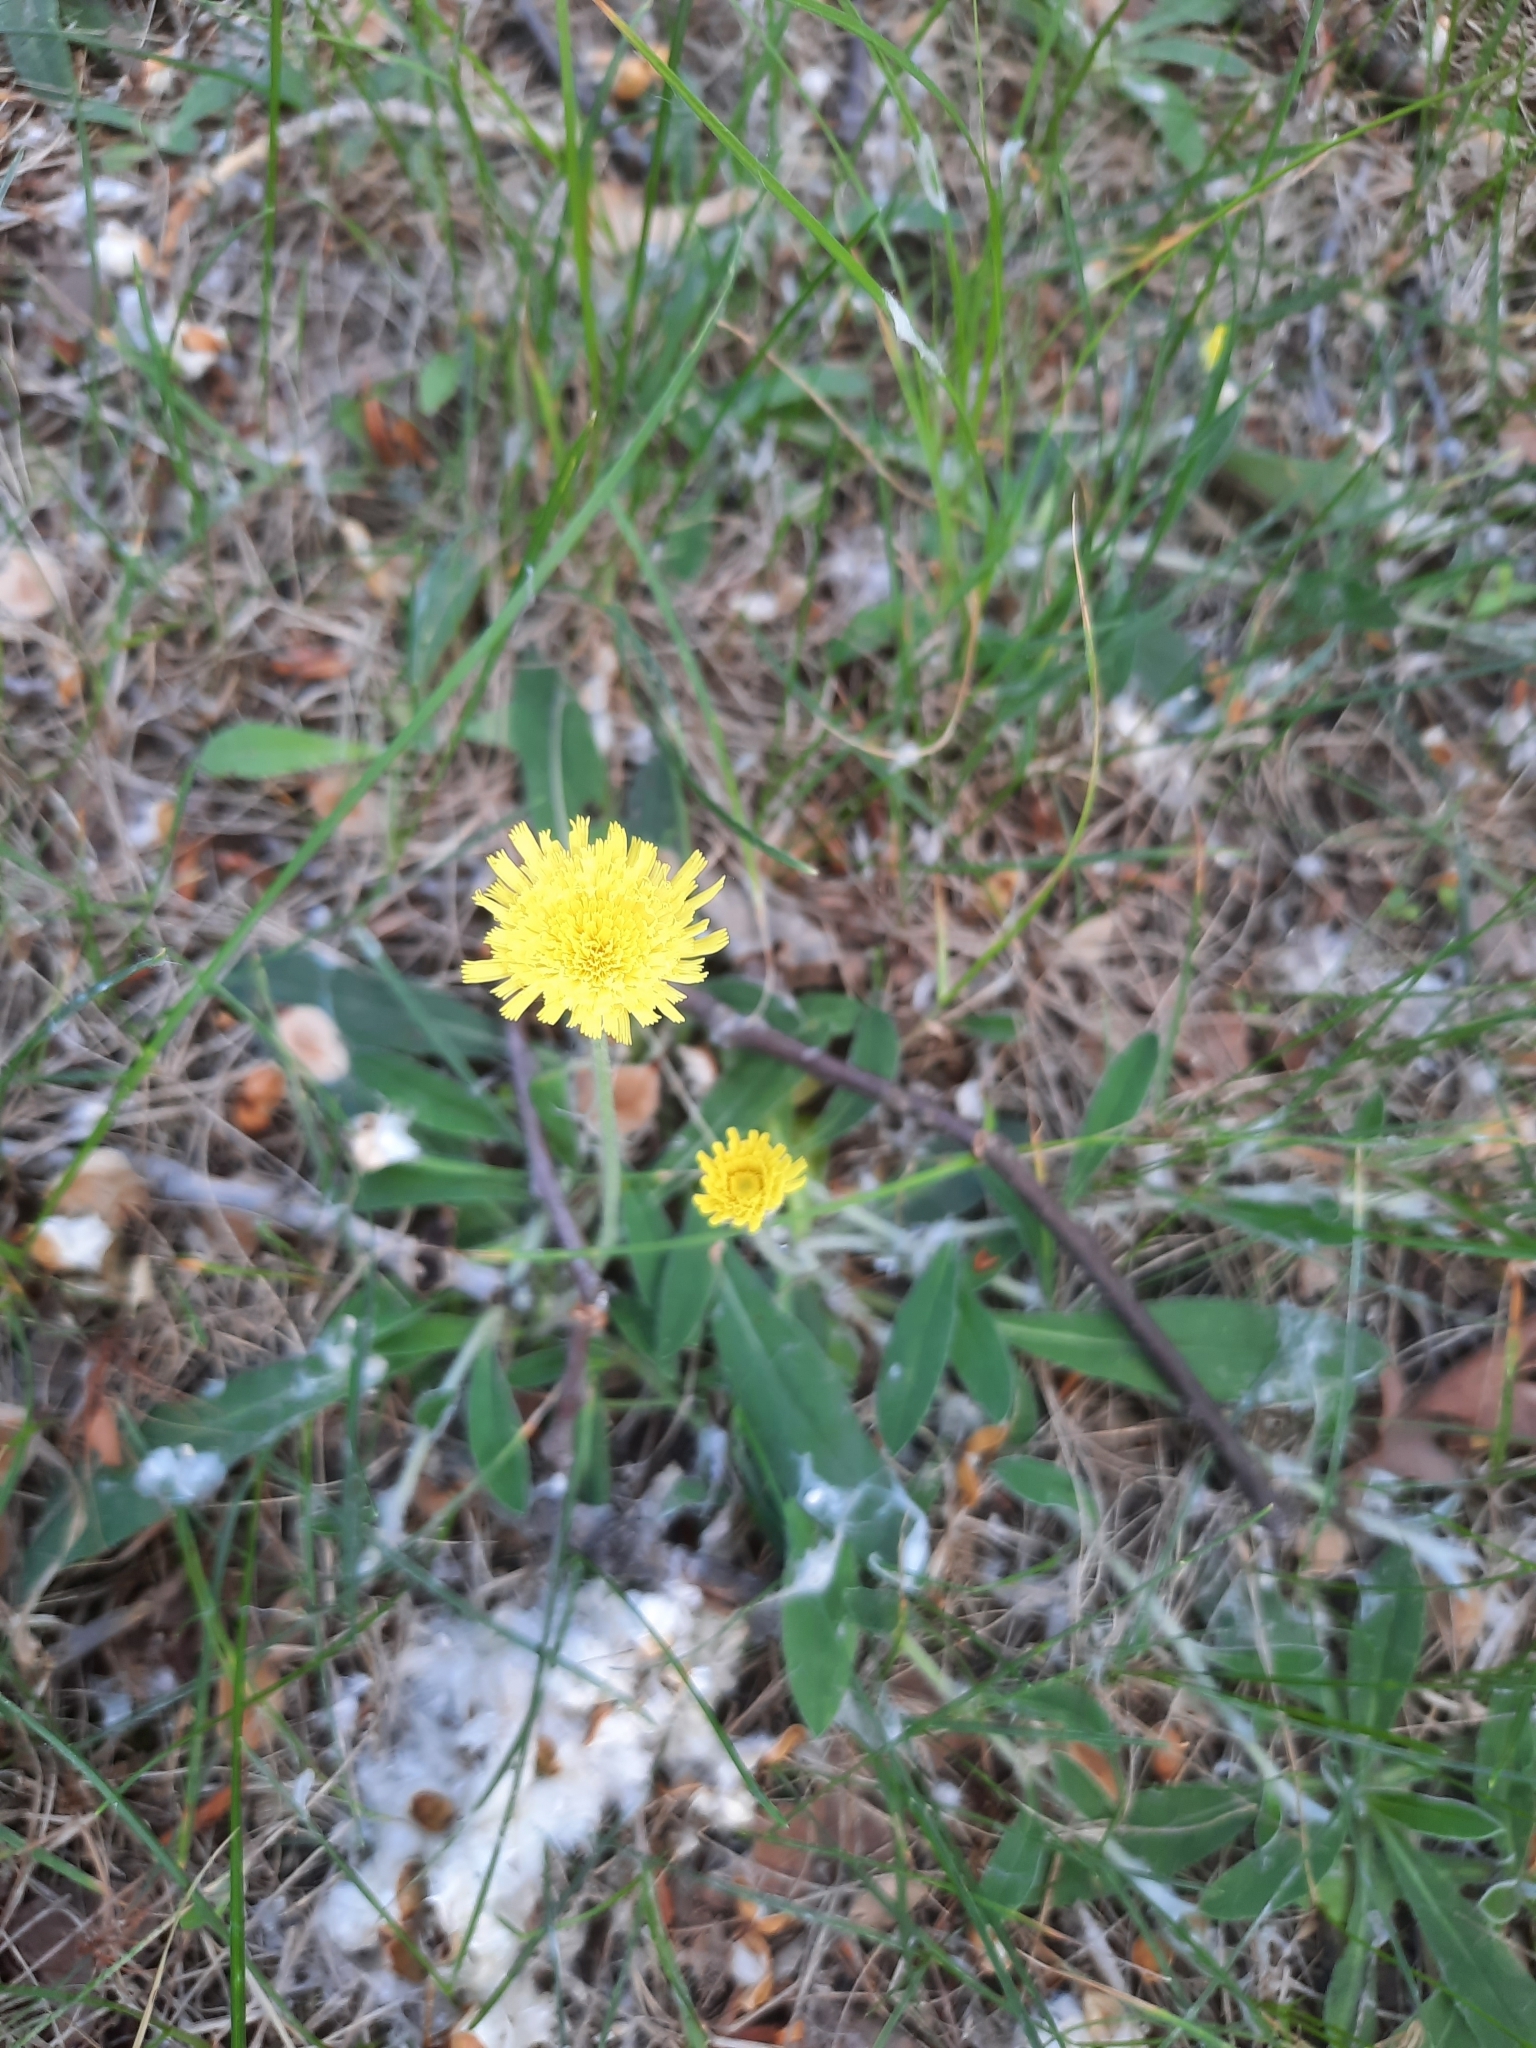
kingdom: Plantae
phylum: Tracheophyta
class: Magnoliopsida
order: Asterales
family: Asteraceae
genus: Pilosella
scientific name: Pilosella officinarum
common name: Mouse-ear hawkweed
